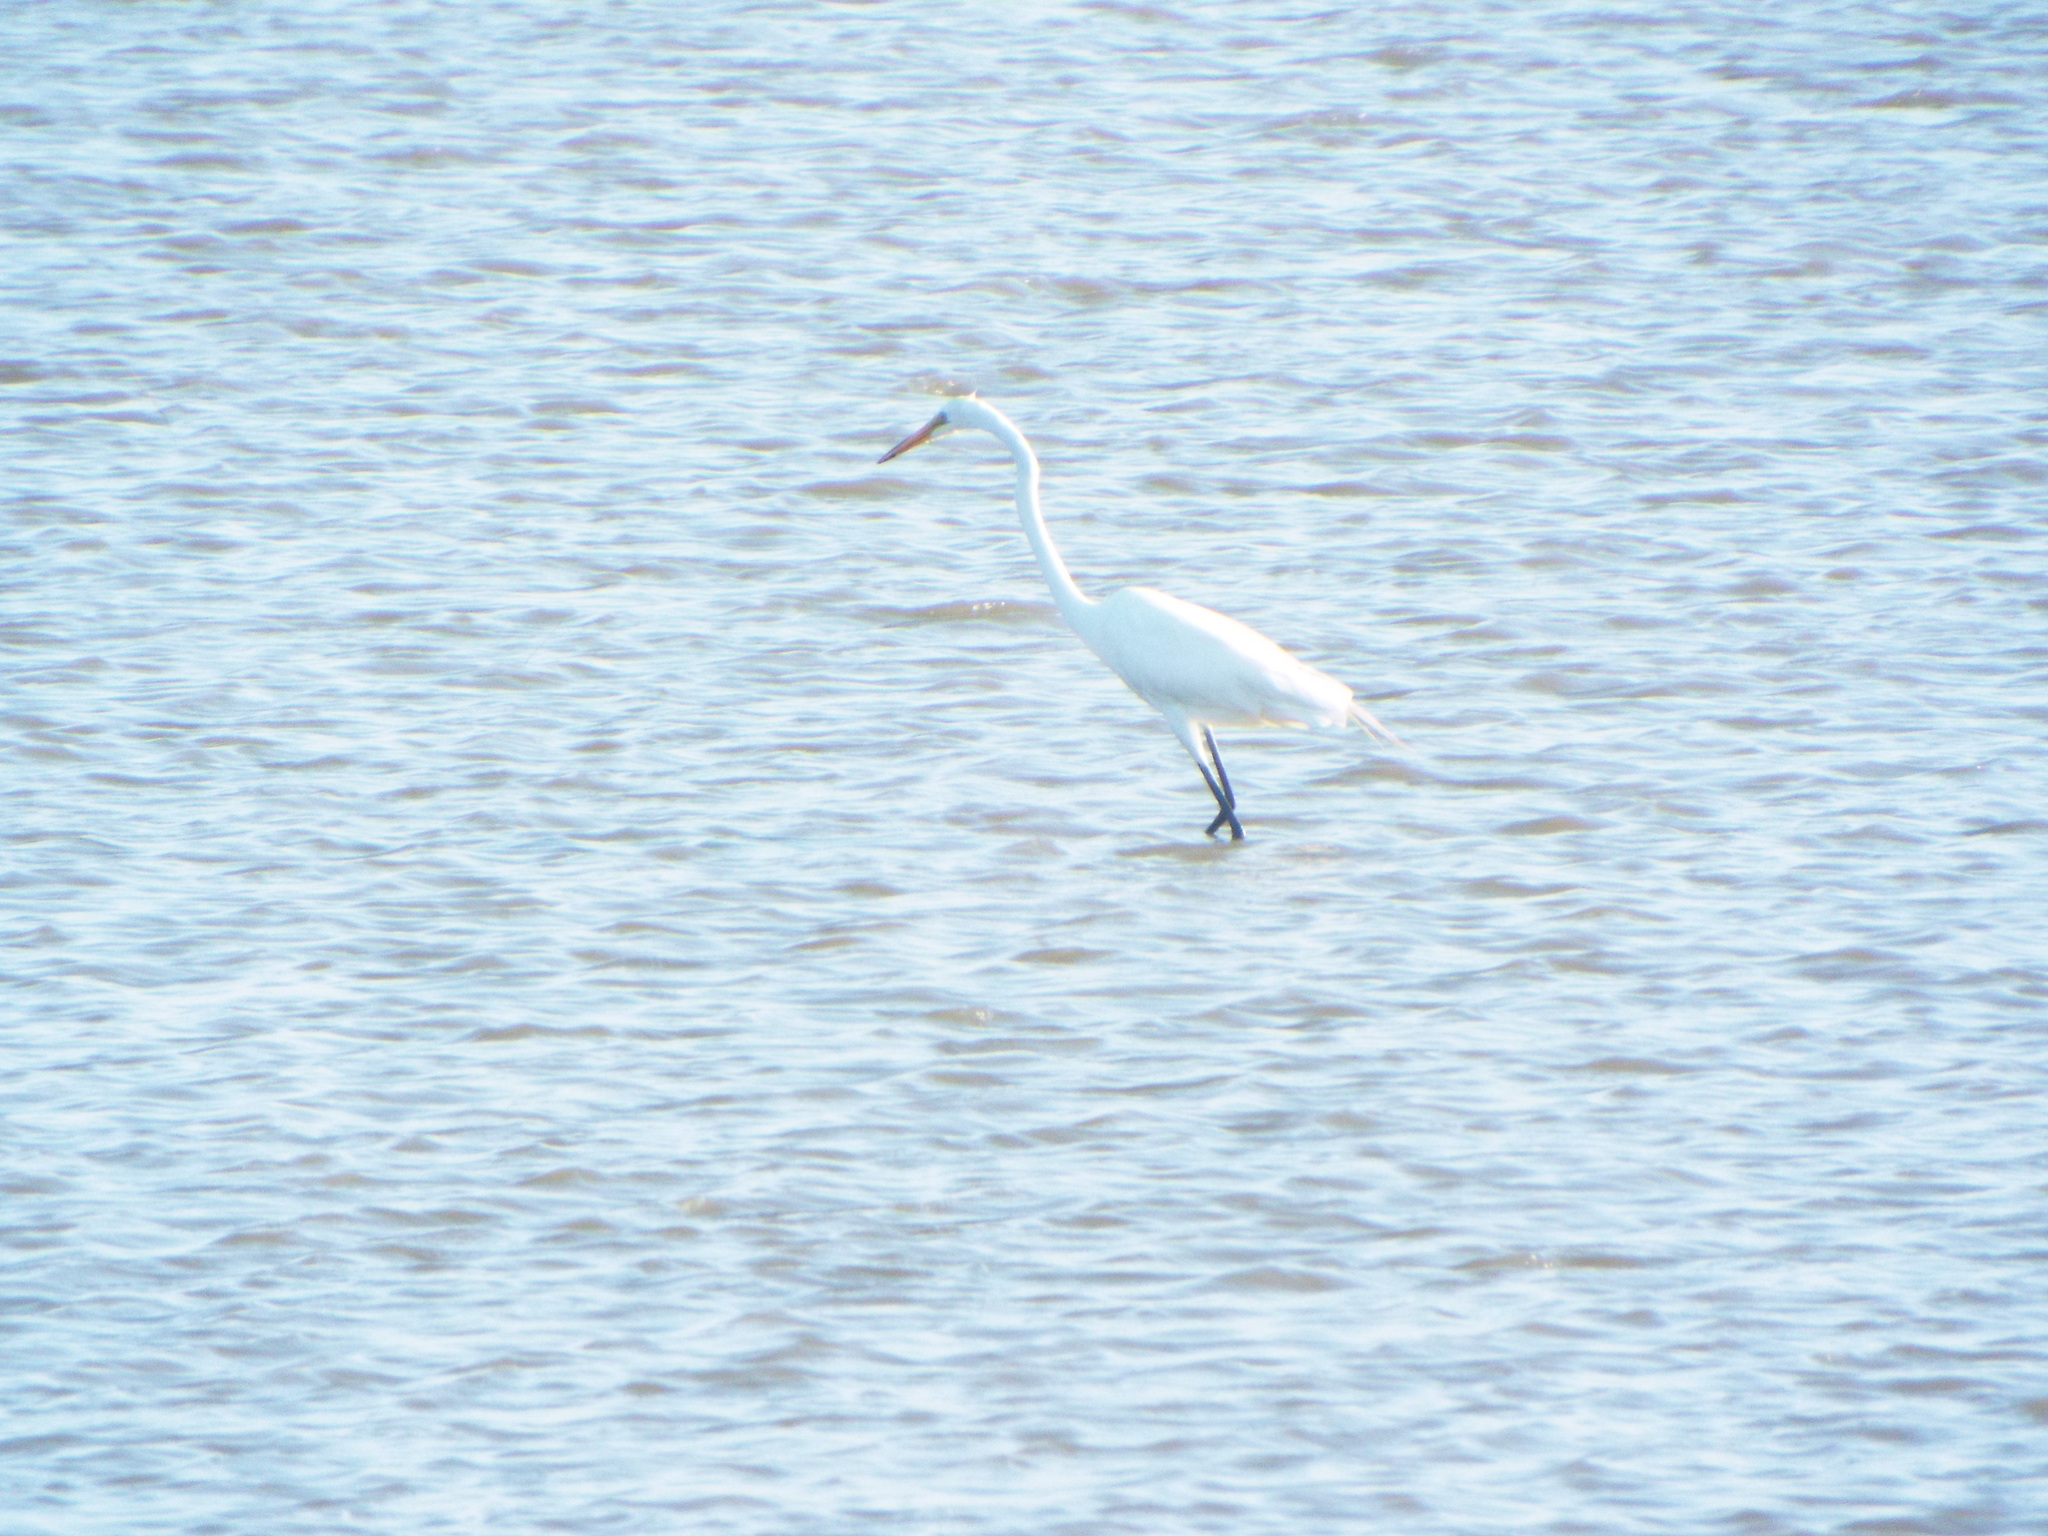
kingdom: Animalia
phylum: Chordata
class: Aves
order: Pelecaniformes
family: Ardeidae
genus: Ardea
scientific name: Ardea alba
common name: Great egret
